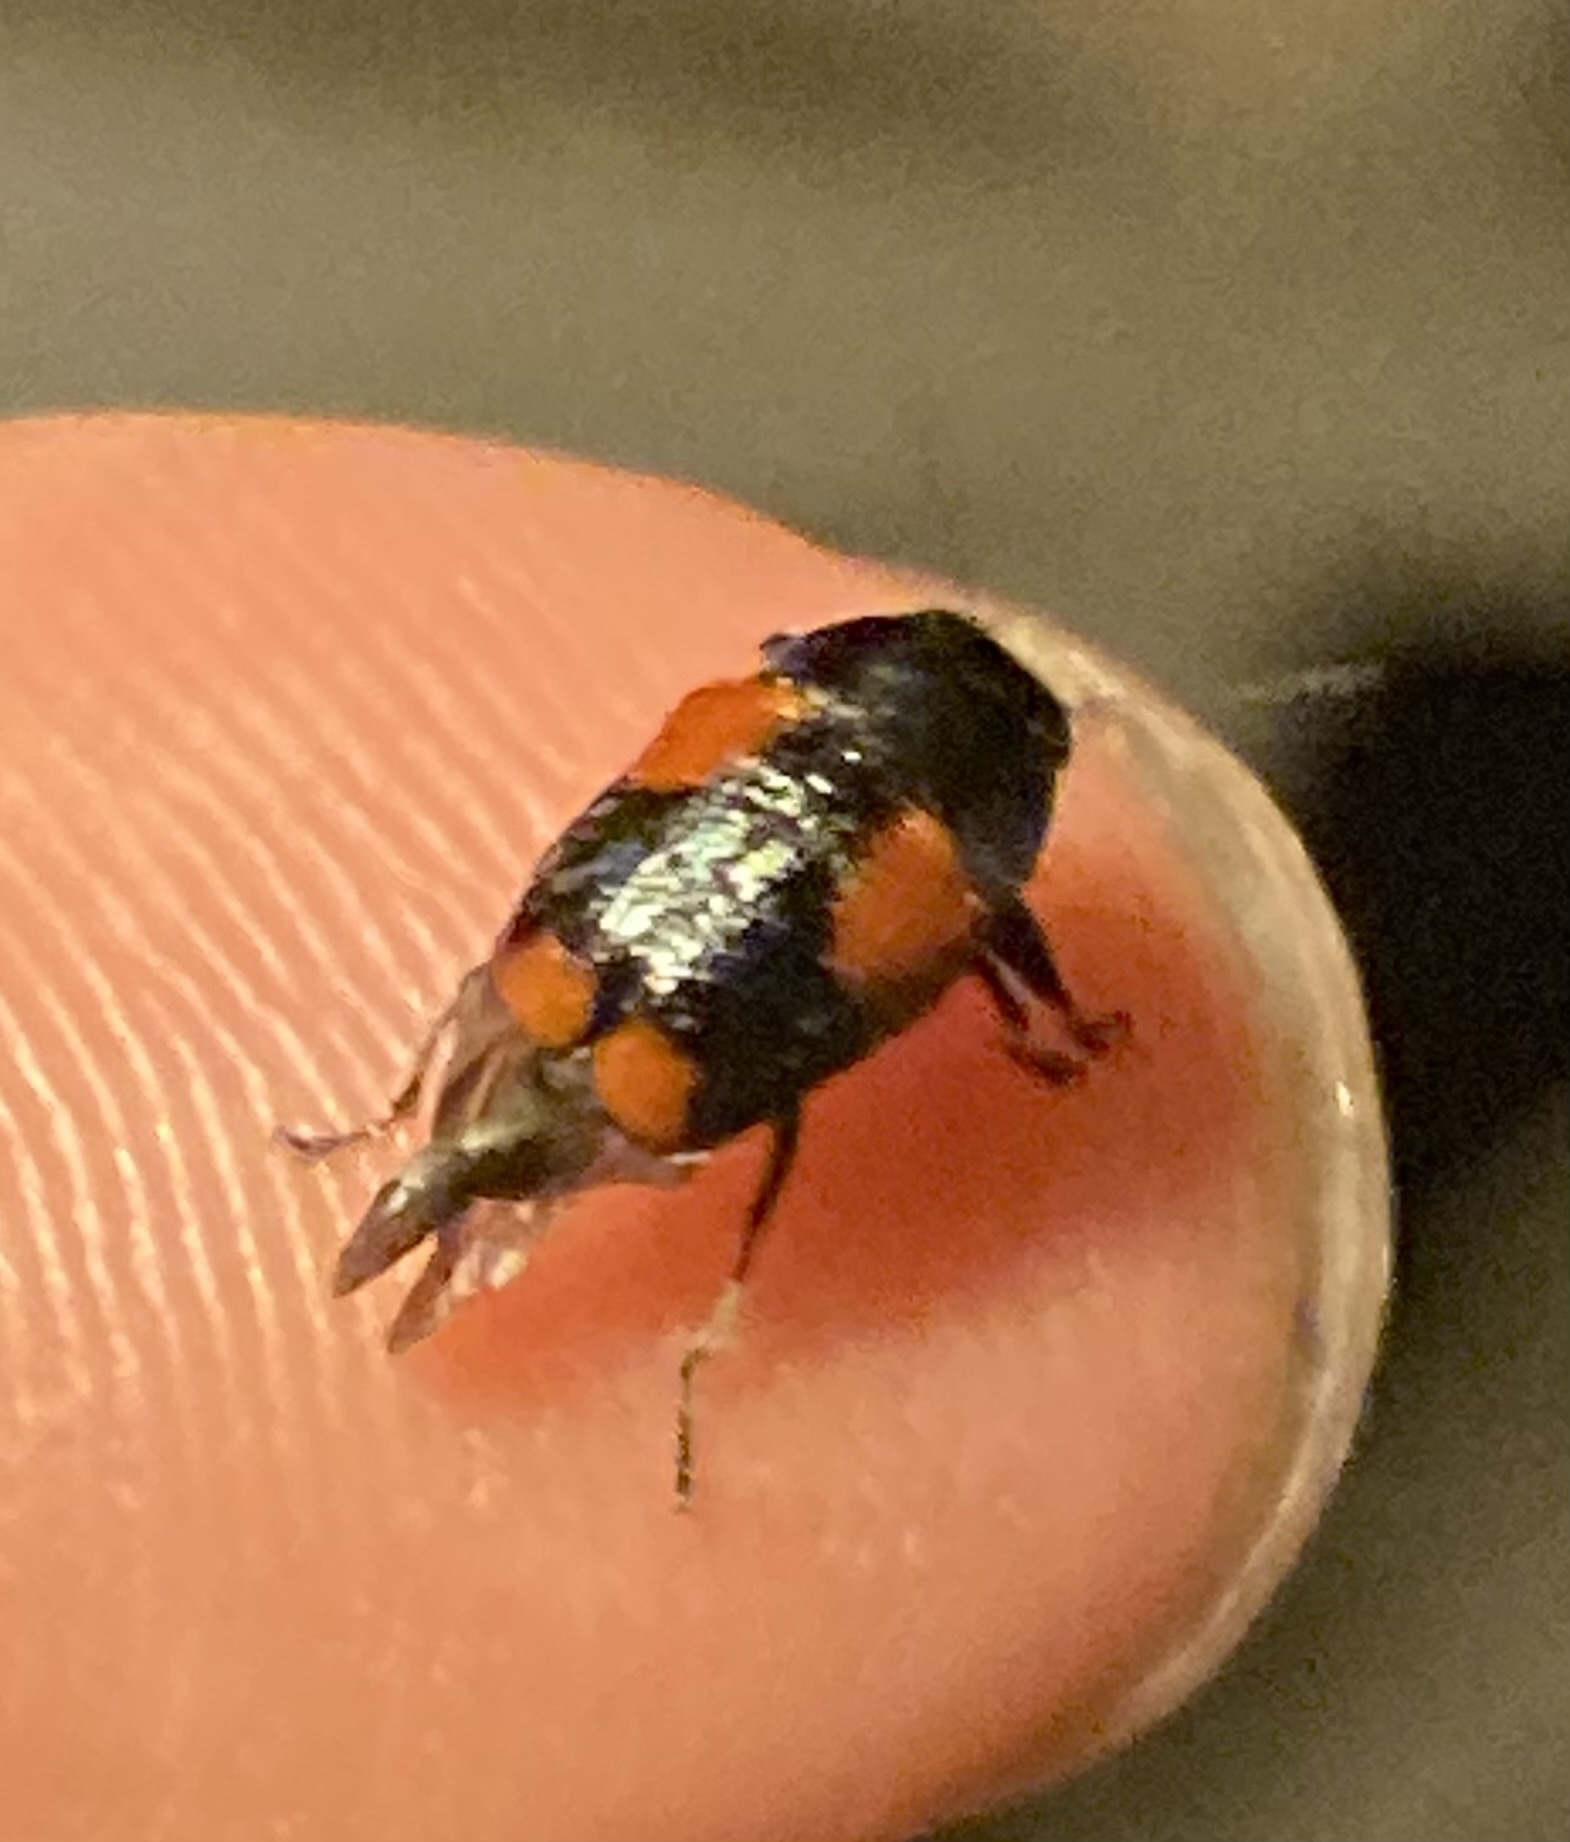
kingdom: Animalia
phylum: Arthropoda
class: Insecta
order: Coleoptera
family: Chrysomelidae
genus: Griburius
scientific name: Griburius
